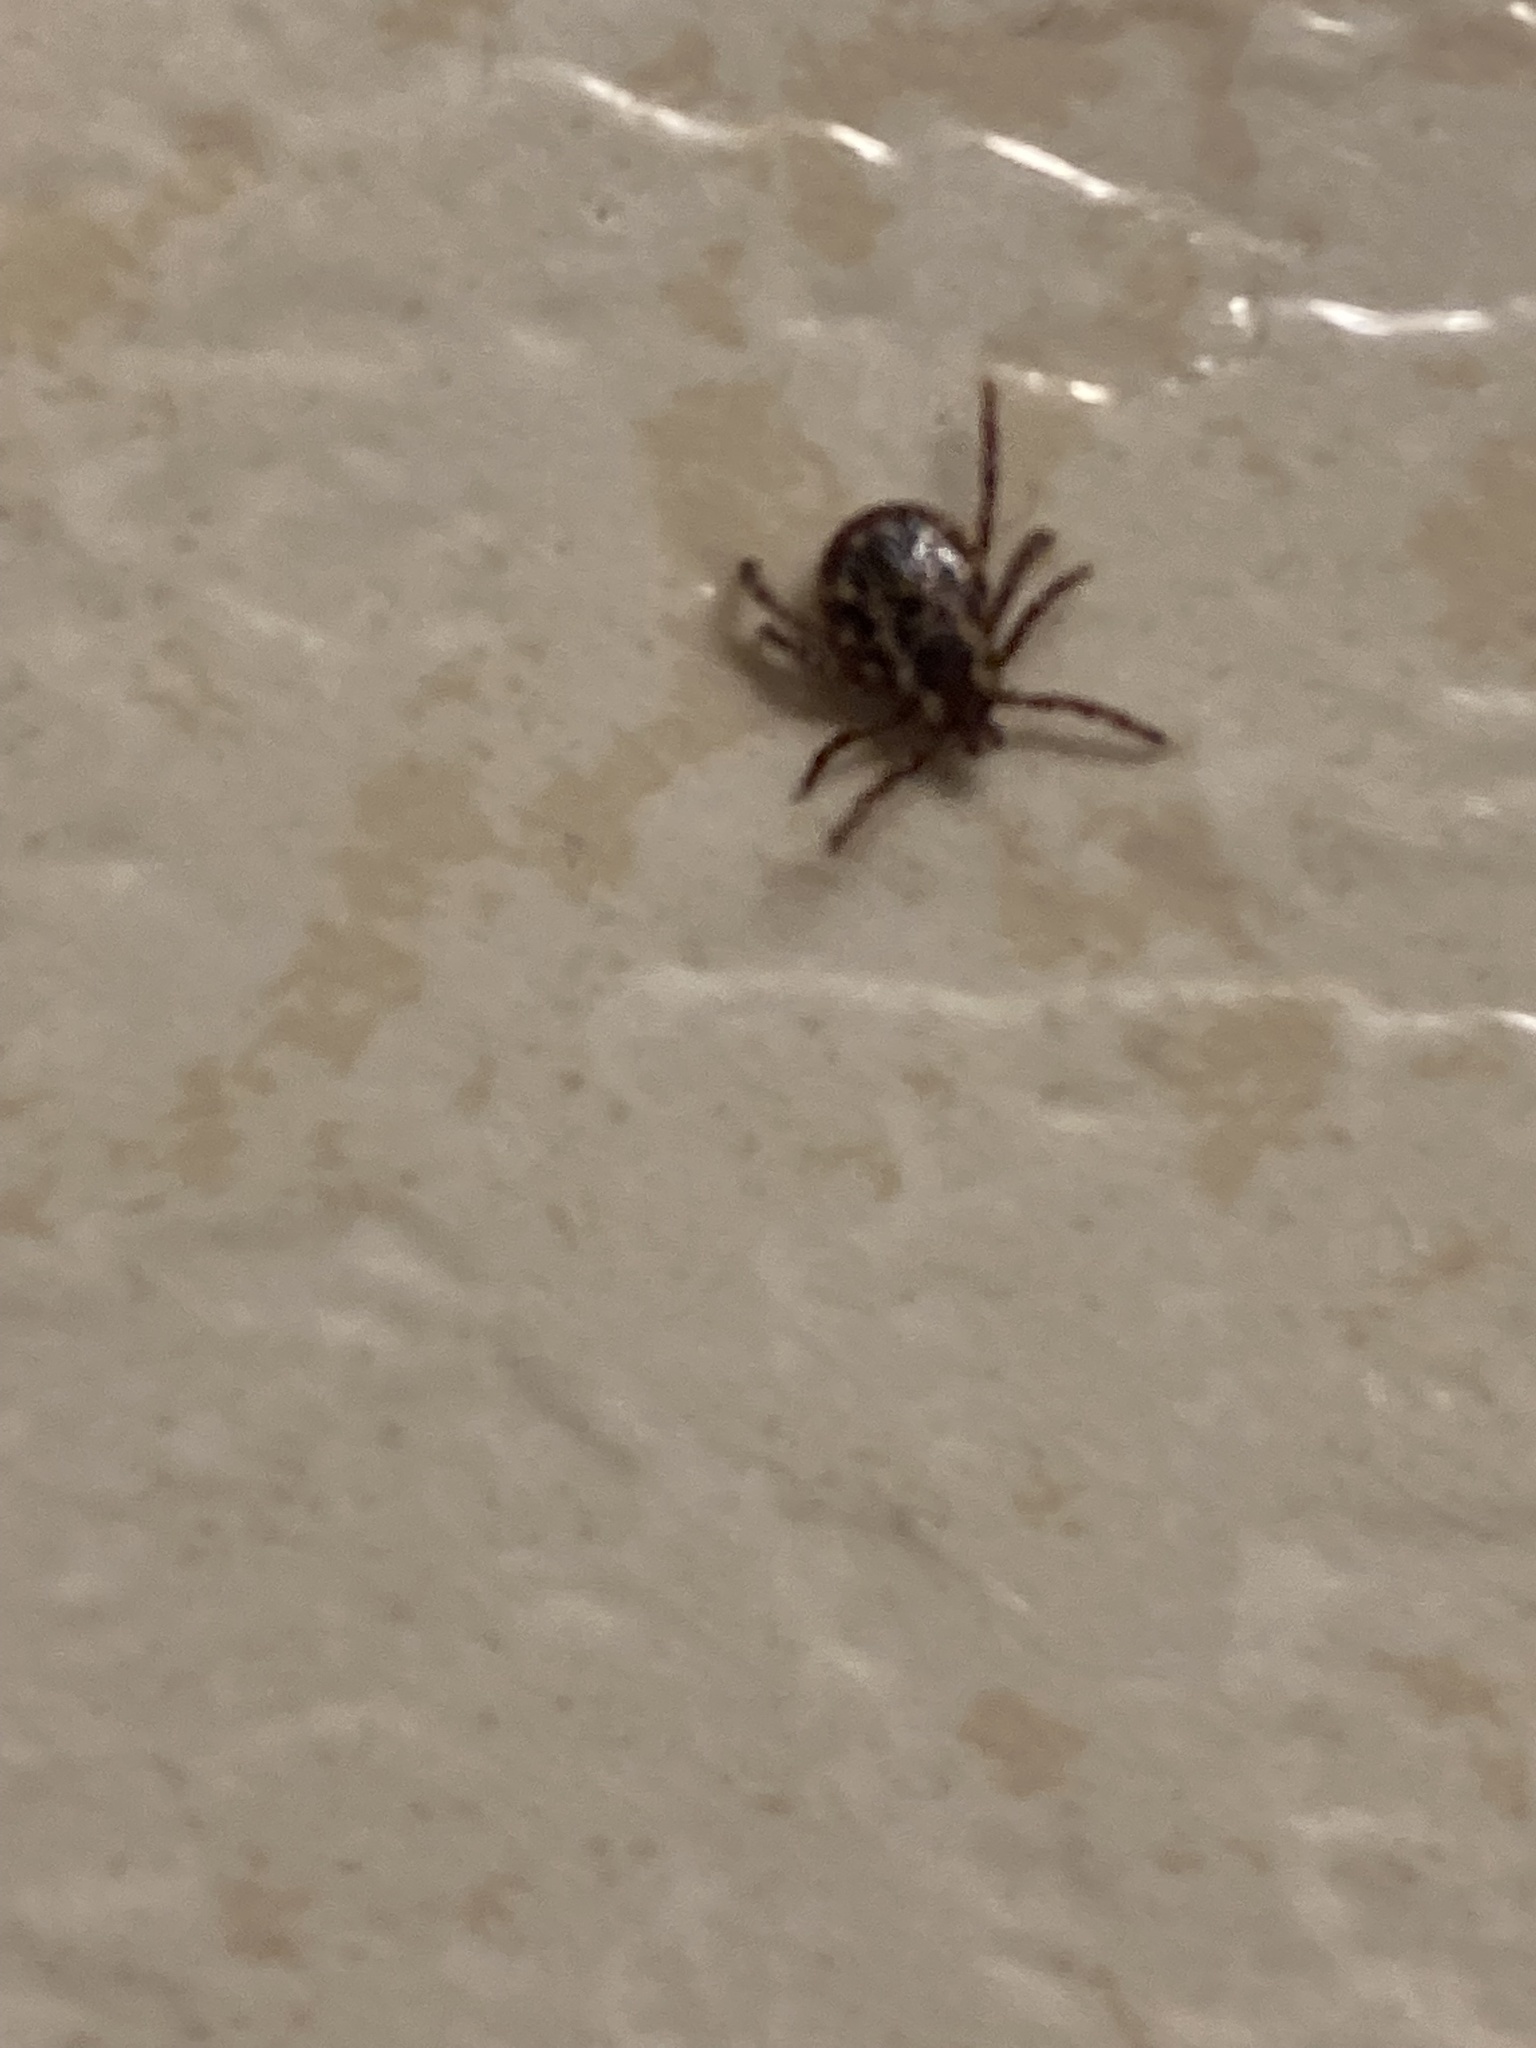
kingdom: Animalia
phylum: Arthropoda
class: Arachnida
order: Ixodida
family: Ixodidae
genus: Dermacentor
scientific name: Dermacentor variabilis
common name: American dog tick
